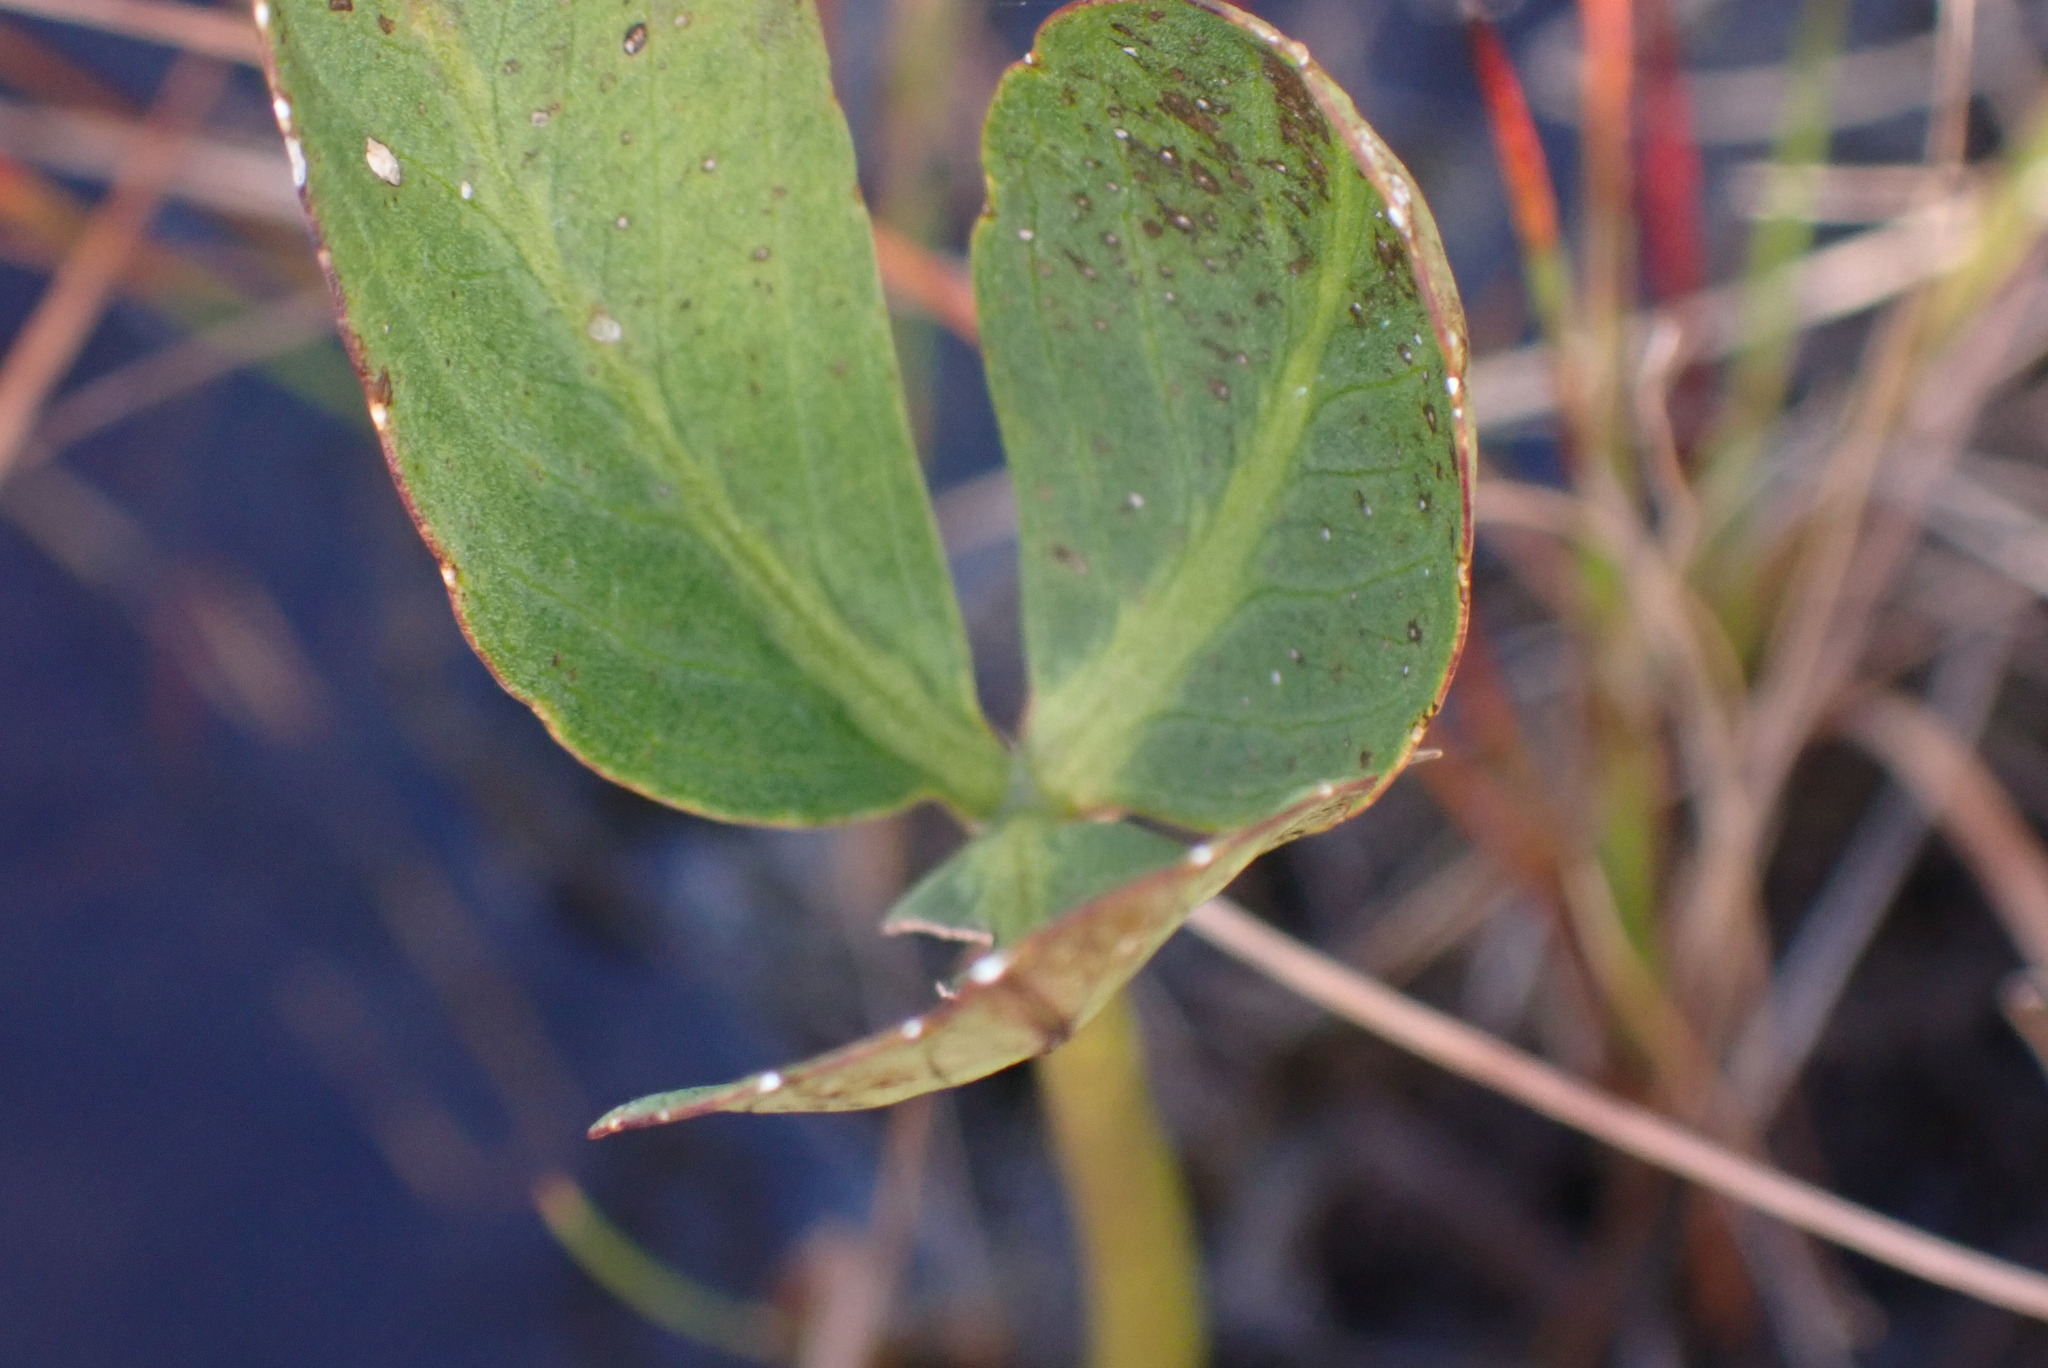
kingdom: Plantae
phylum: Tracheophyta
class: Magnoliopsida
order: Asterales
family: Menyanthaceae
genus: Menyanthes
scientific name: Menyanthes trifoliata
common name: Bogbean
